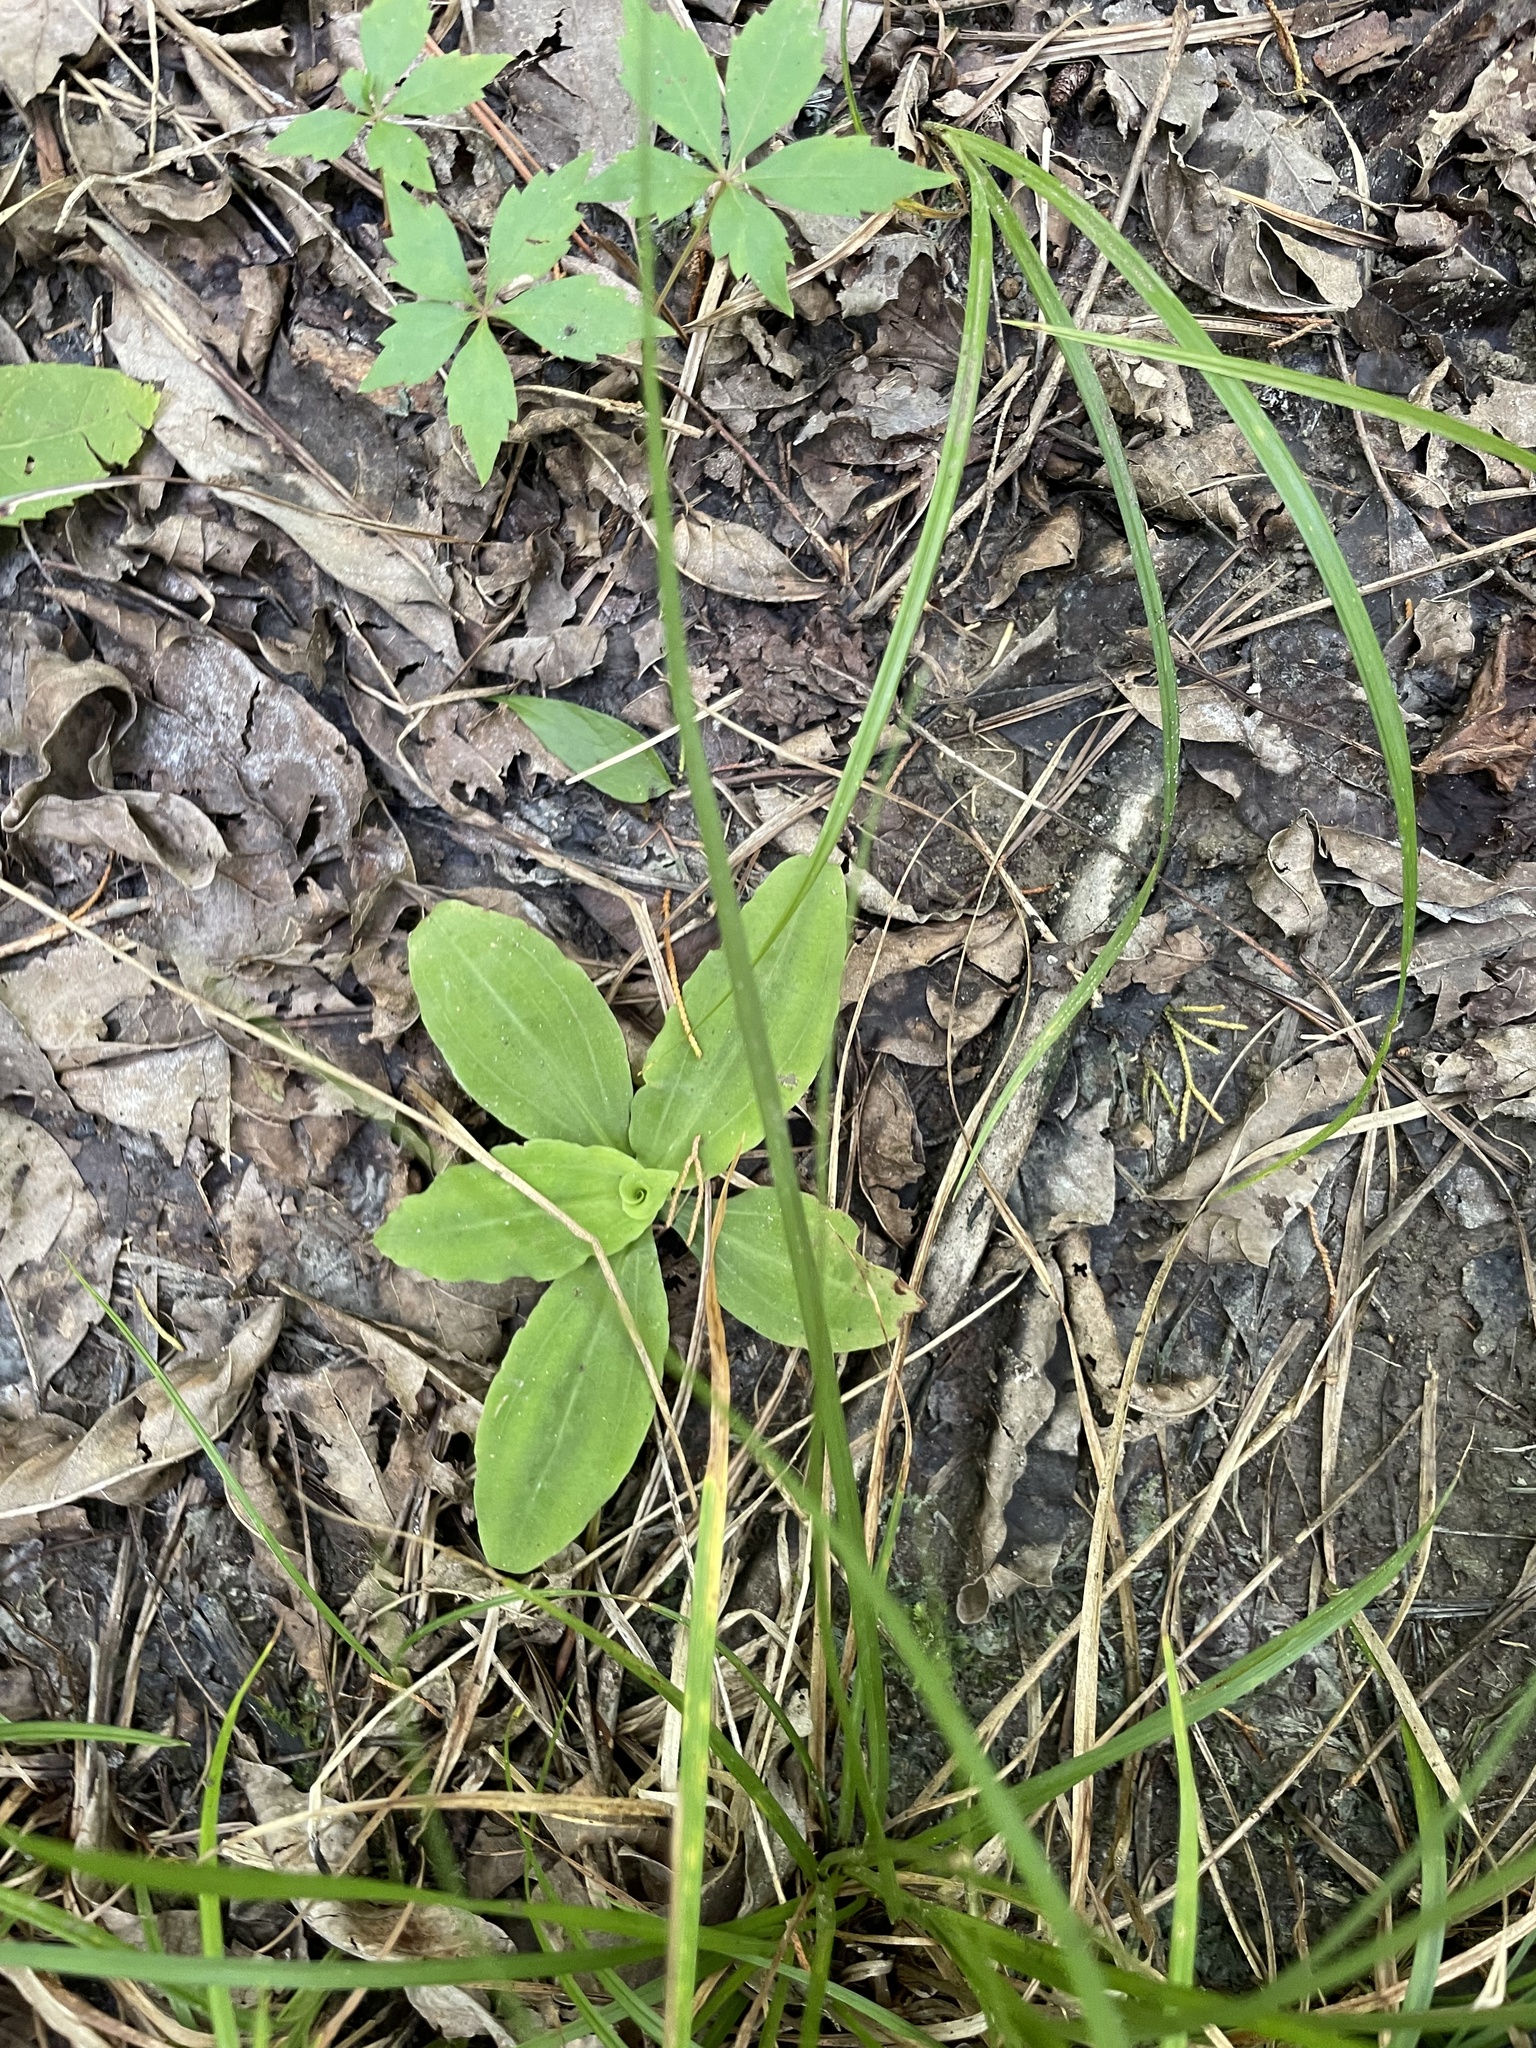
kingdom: Plantae
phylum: Tracheophyta
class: Liliopsida
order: Asparagales
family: Orchidaceae
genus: Ponthieva
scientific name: Ponthieva racemosa
